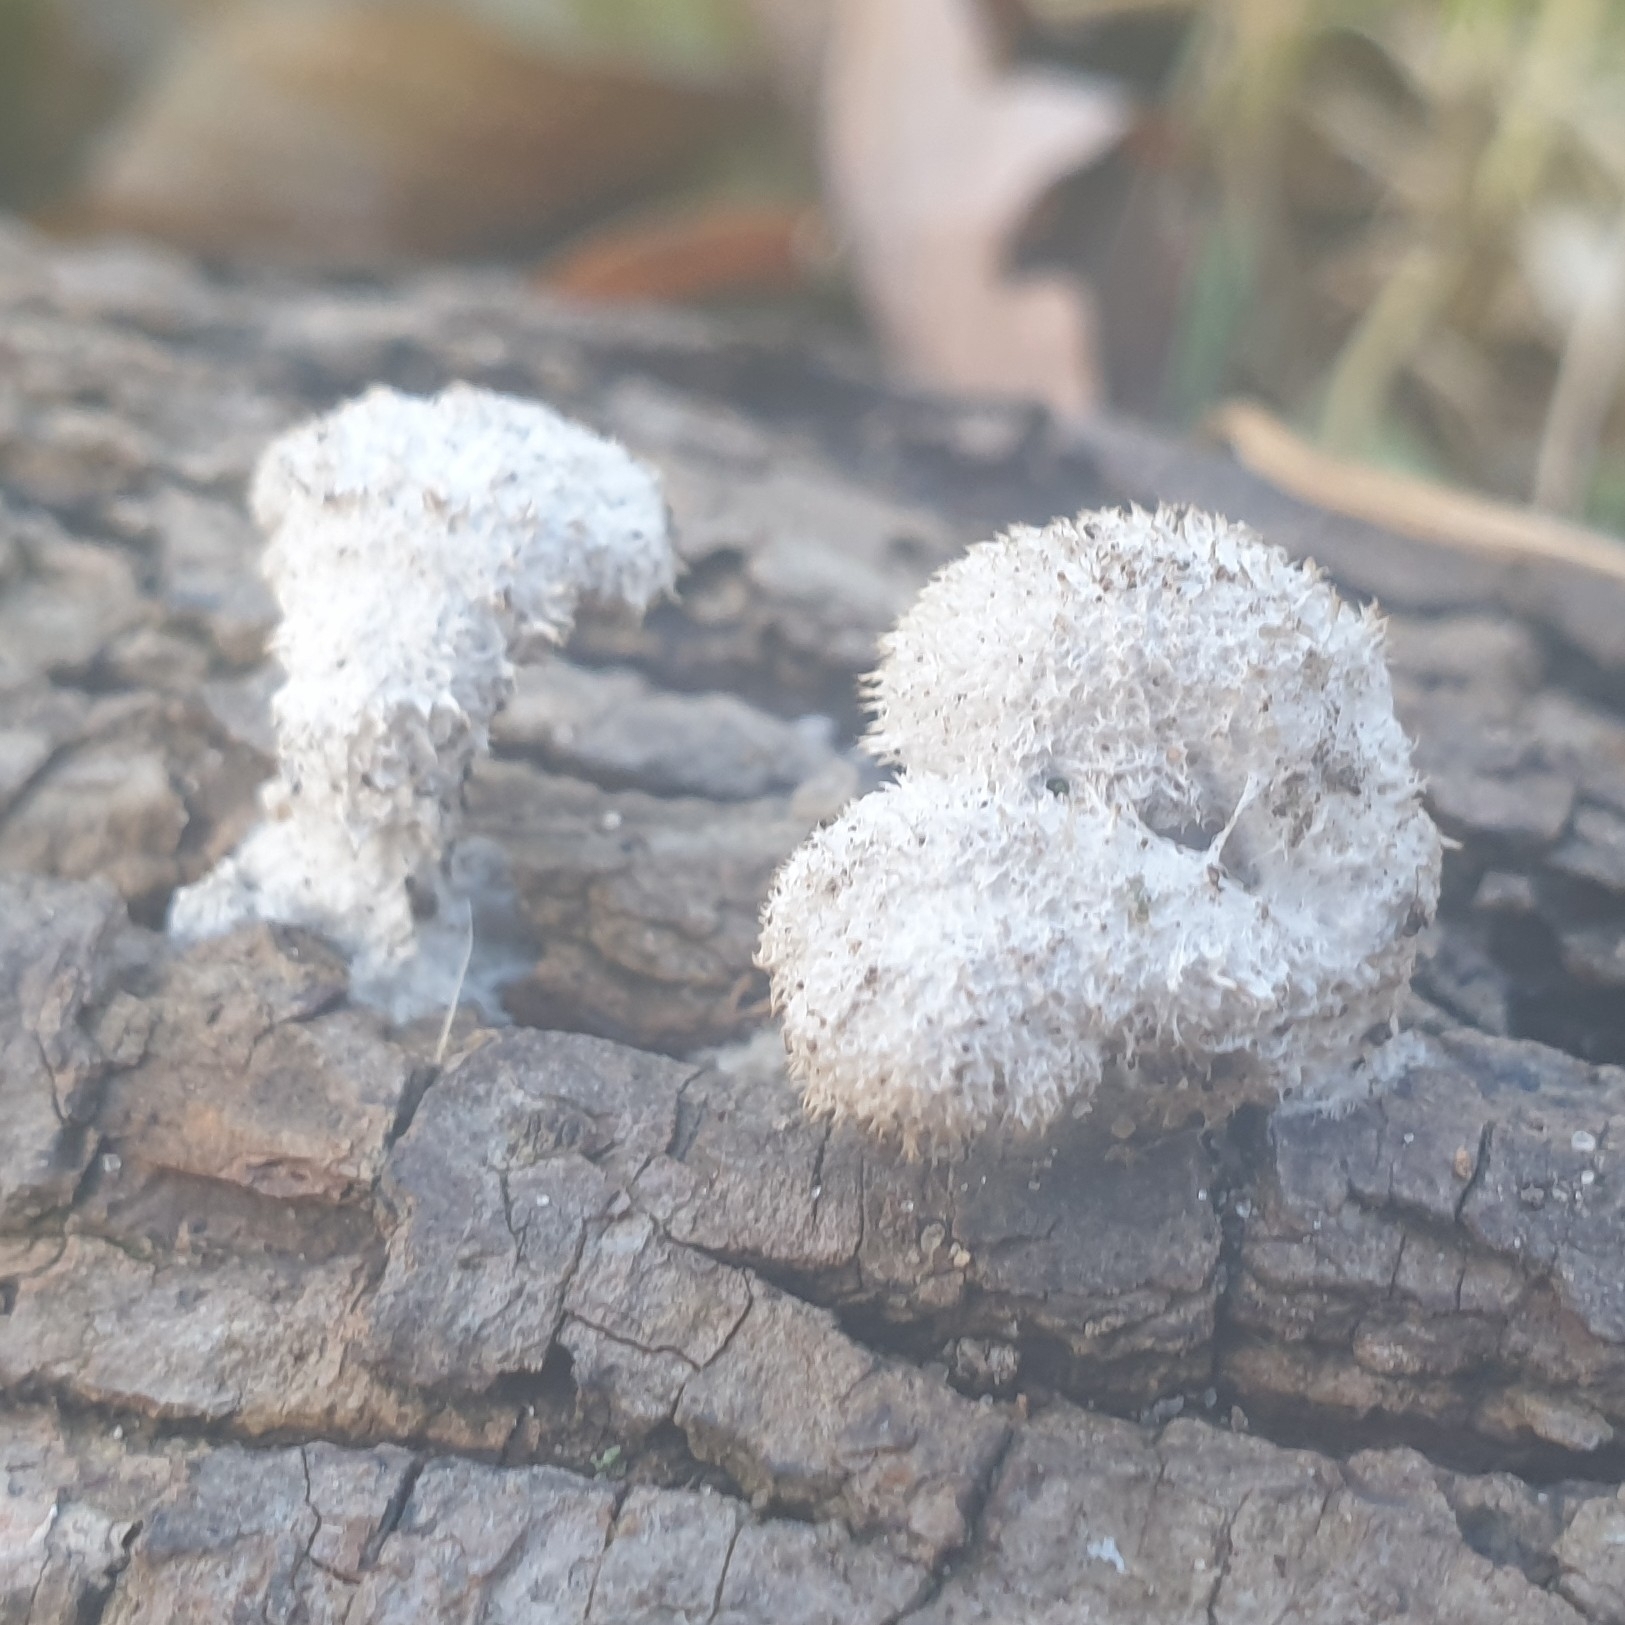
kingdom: Fungi
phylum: Basidiomycota
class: Agaricomycetes
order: Agaricales
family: Schizophyllaceae
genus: Schizophyllum
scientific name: Schizophyllum commune
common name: Common porecrust
